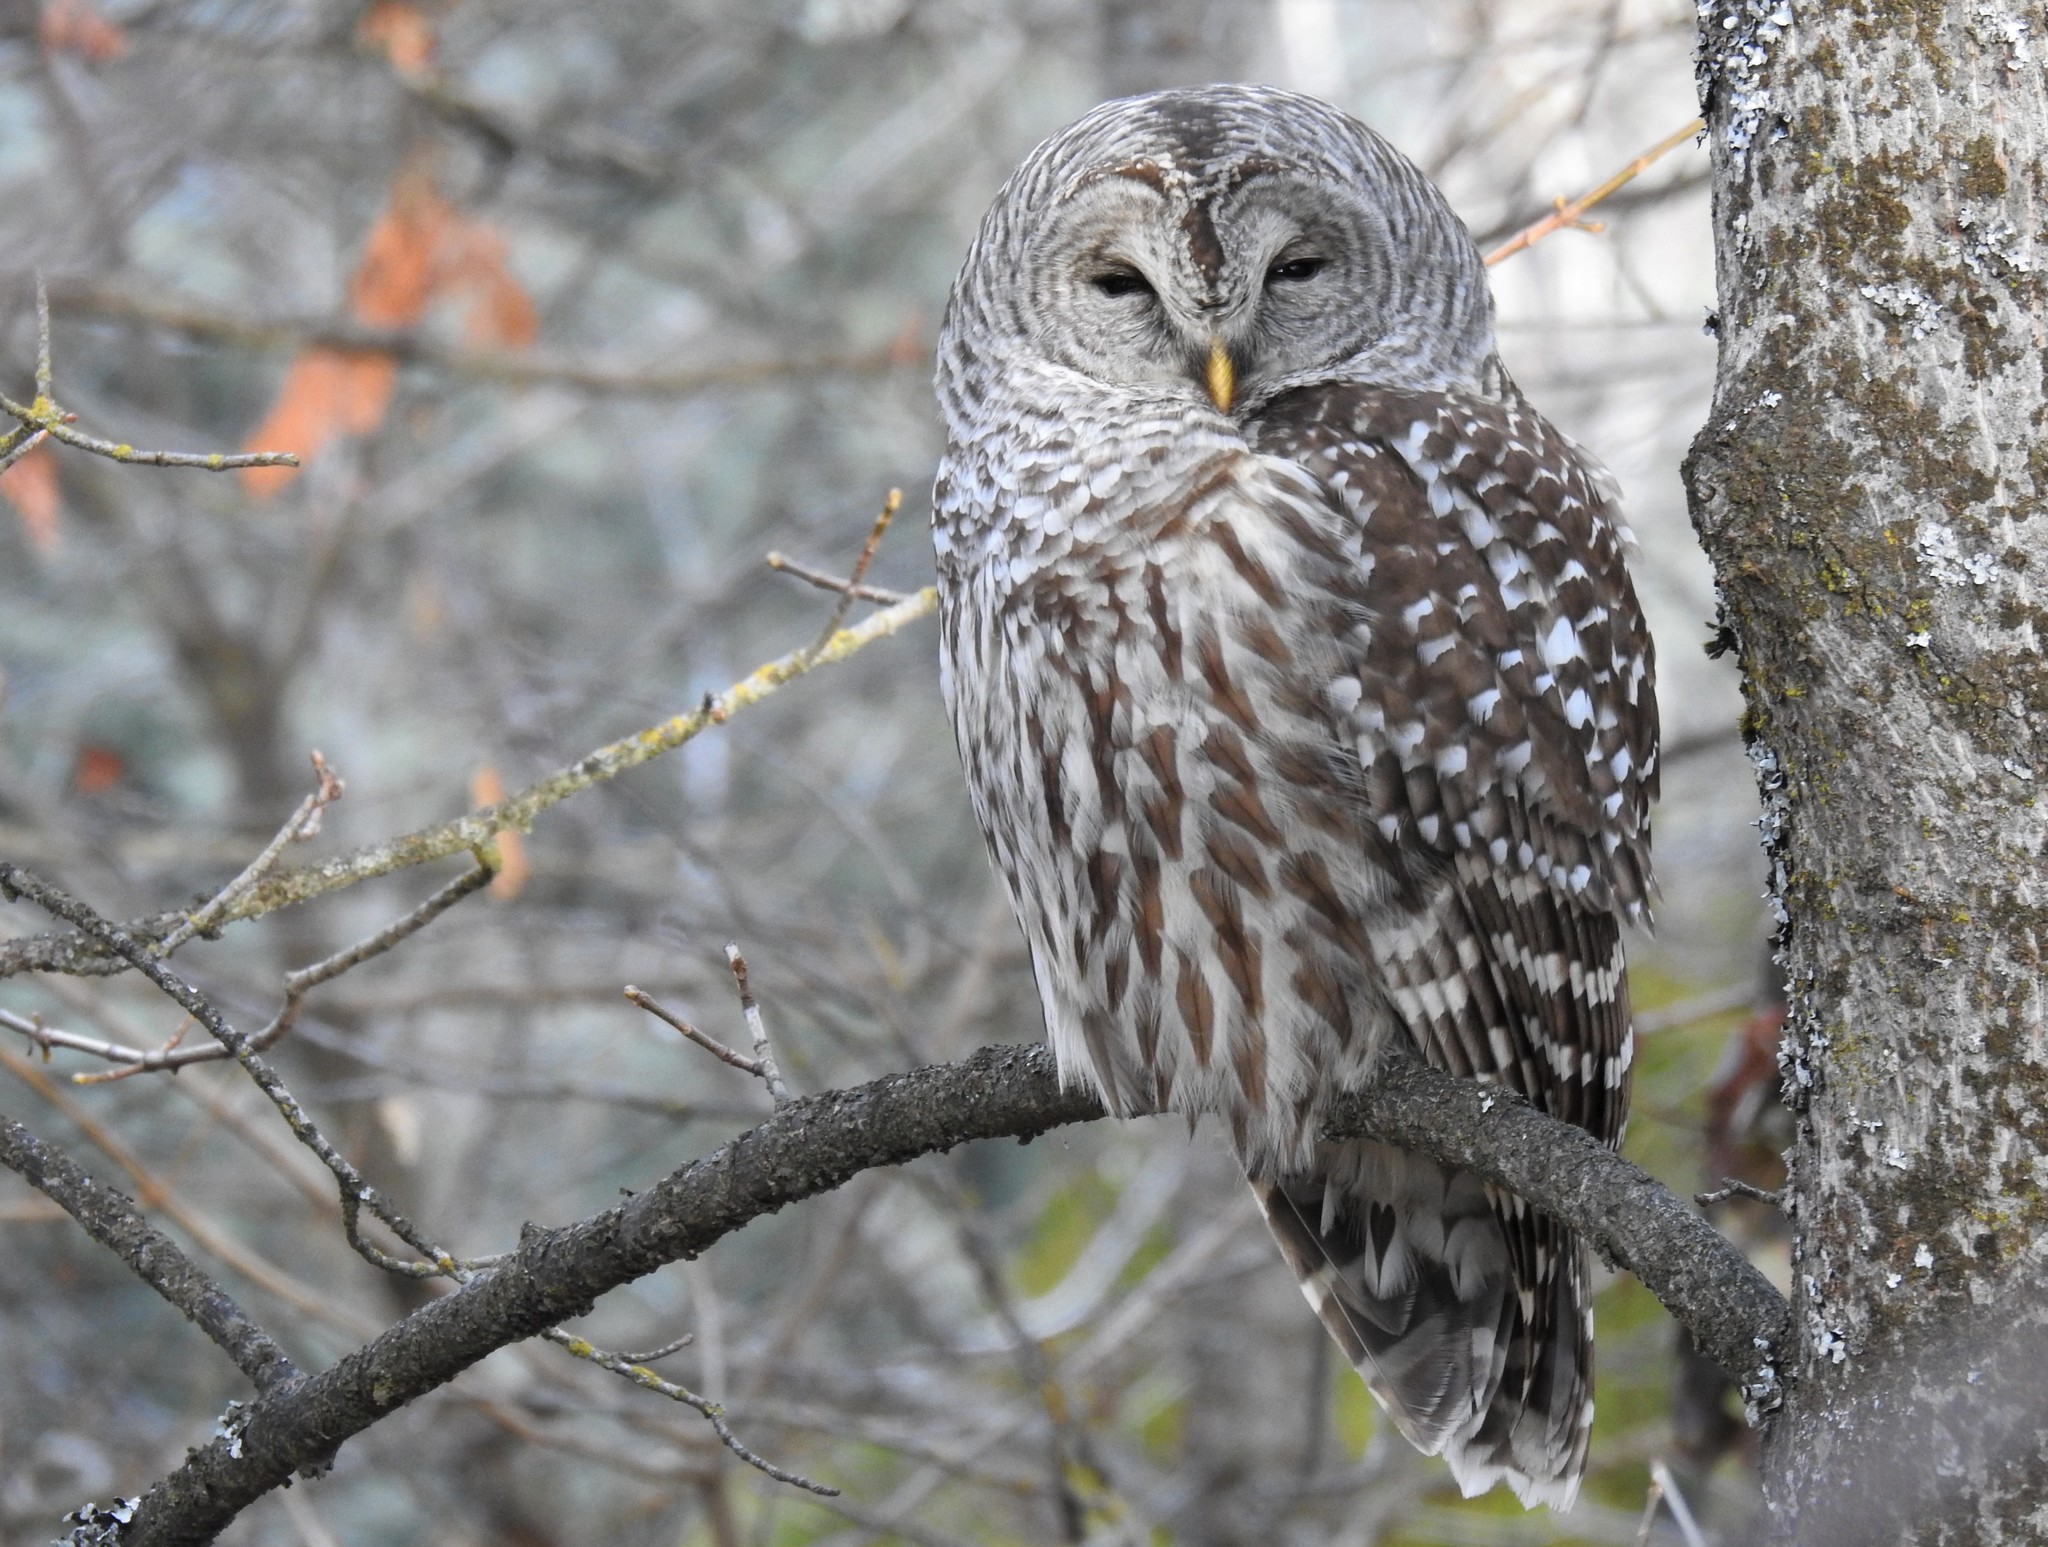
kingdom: Animalia
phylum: Chordata
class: Aves
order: Strigiformes
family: Strigidae
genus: Strix
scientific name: Strix varia
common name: Barred owl
